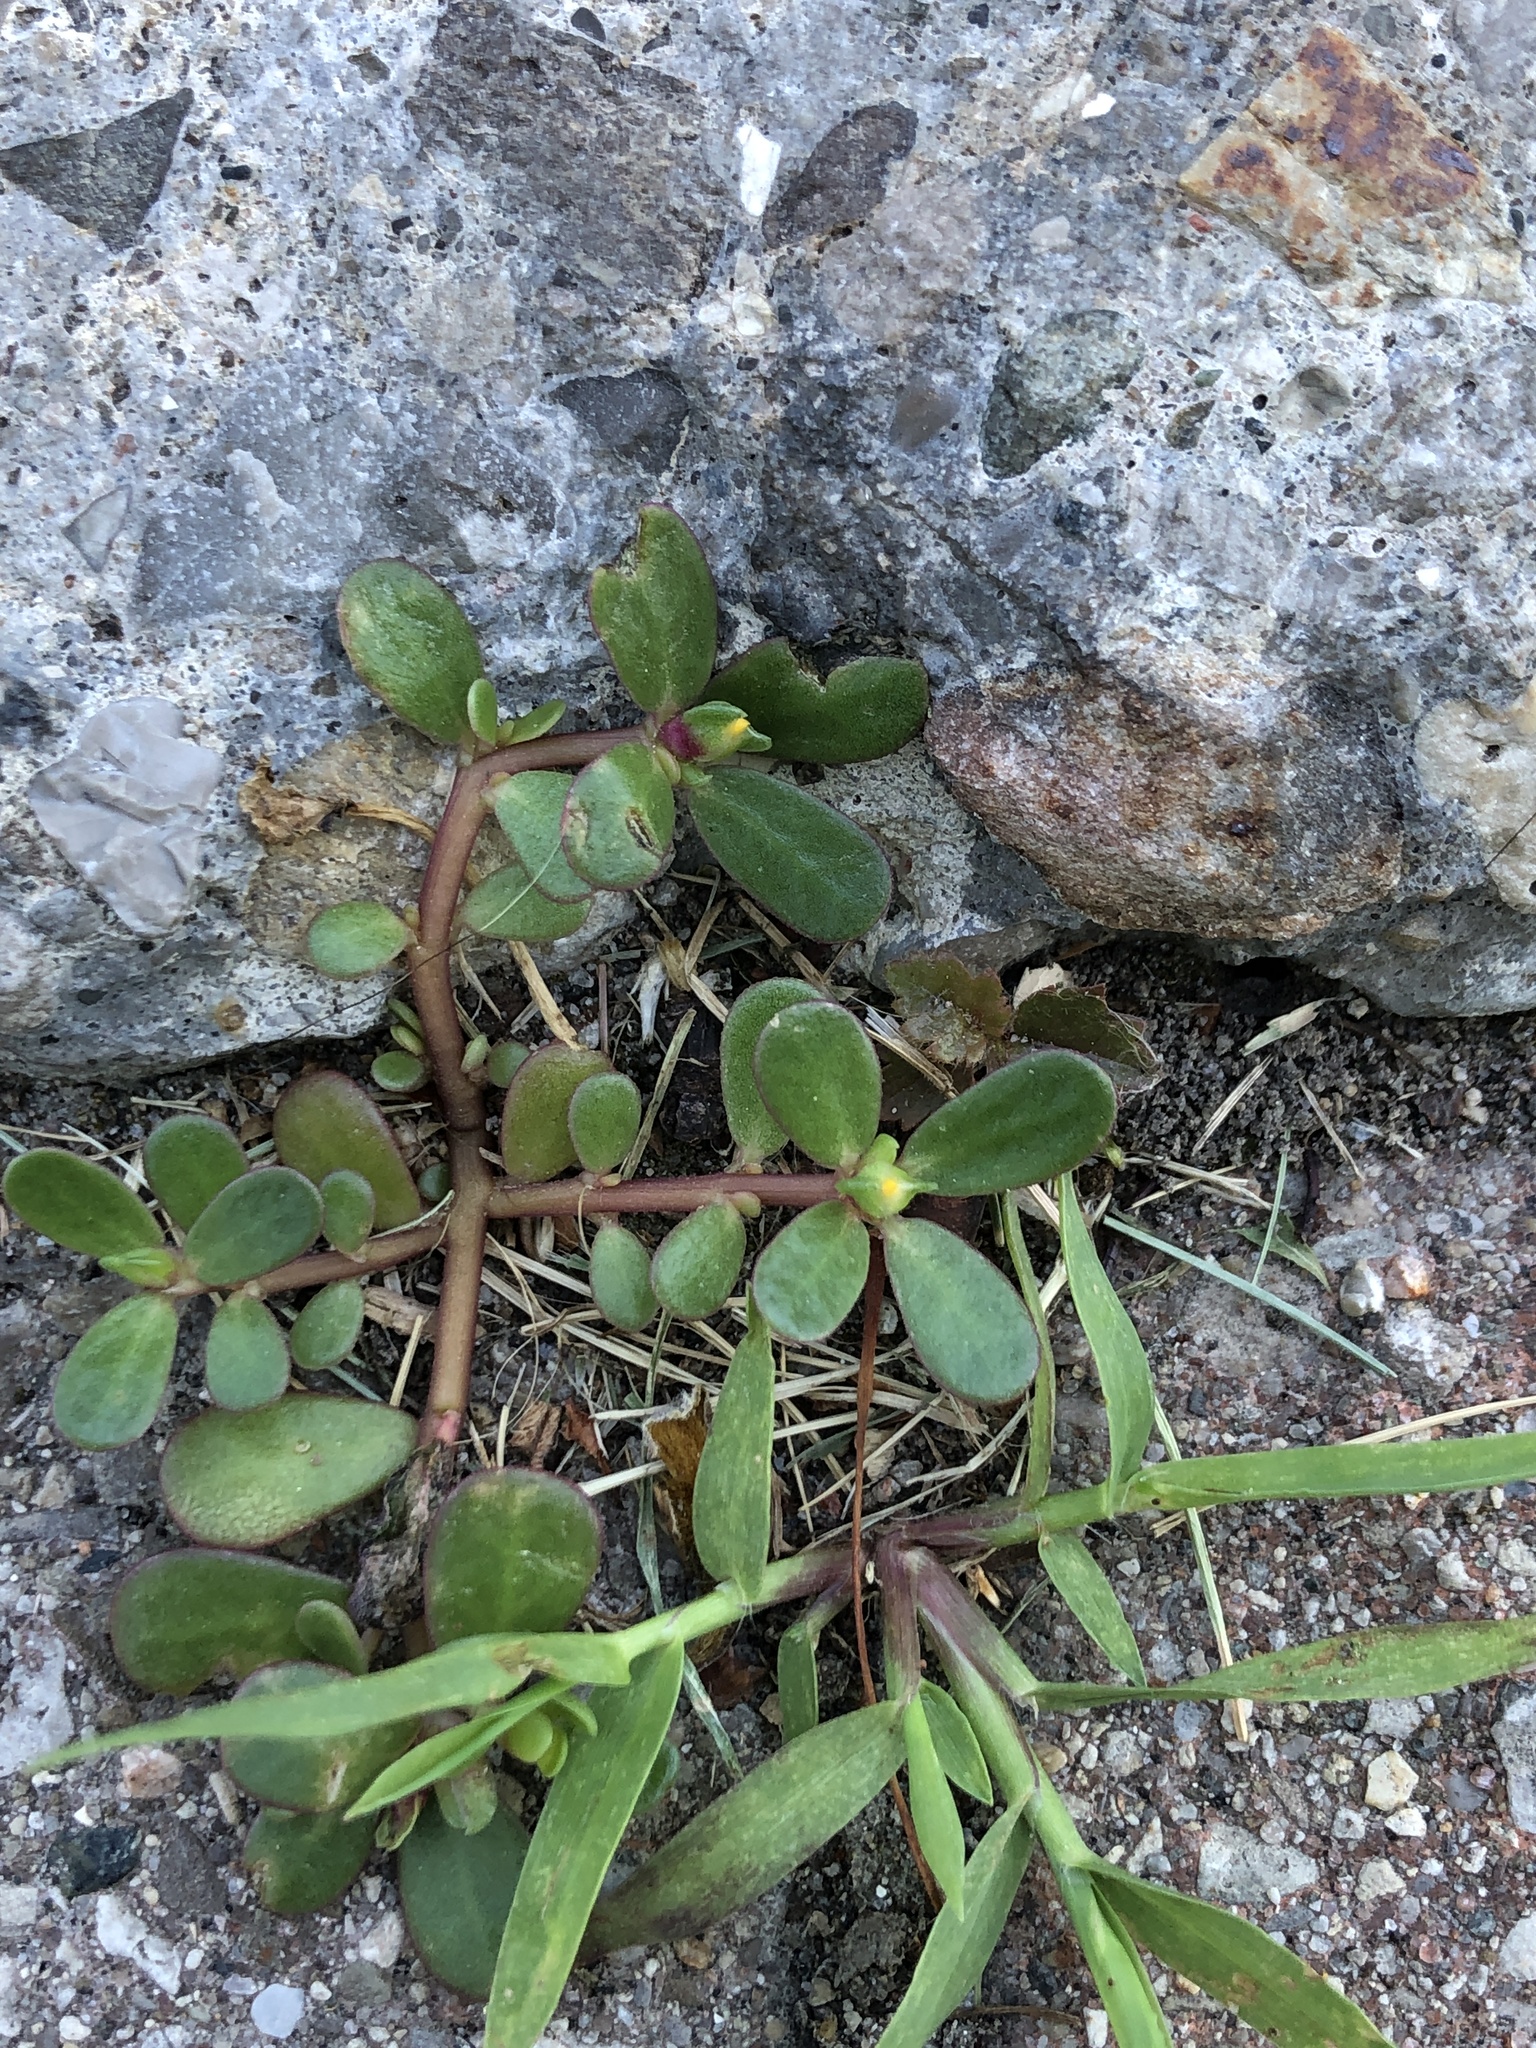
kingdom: Plantae
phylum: Tracheophyta
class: Magnoliopsida
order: Caryophyllales
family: Portulacaceae
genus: Portulaca
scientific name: Portulaca oleracea
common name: Common purslane
